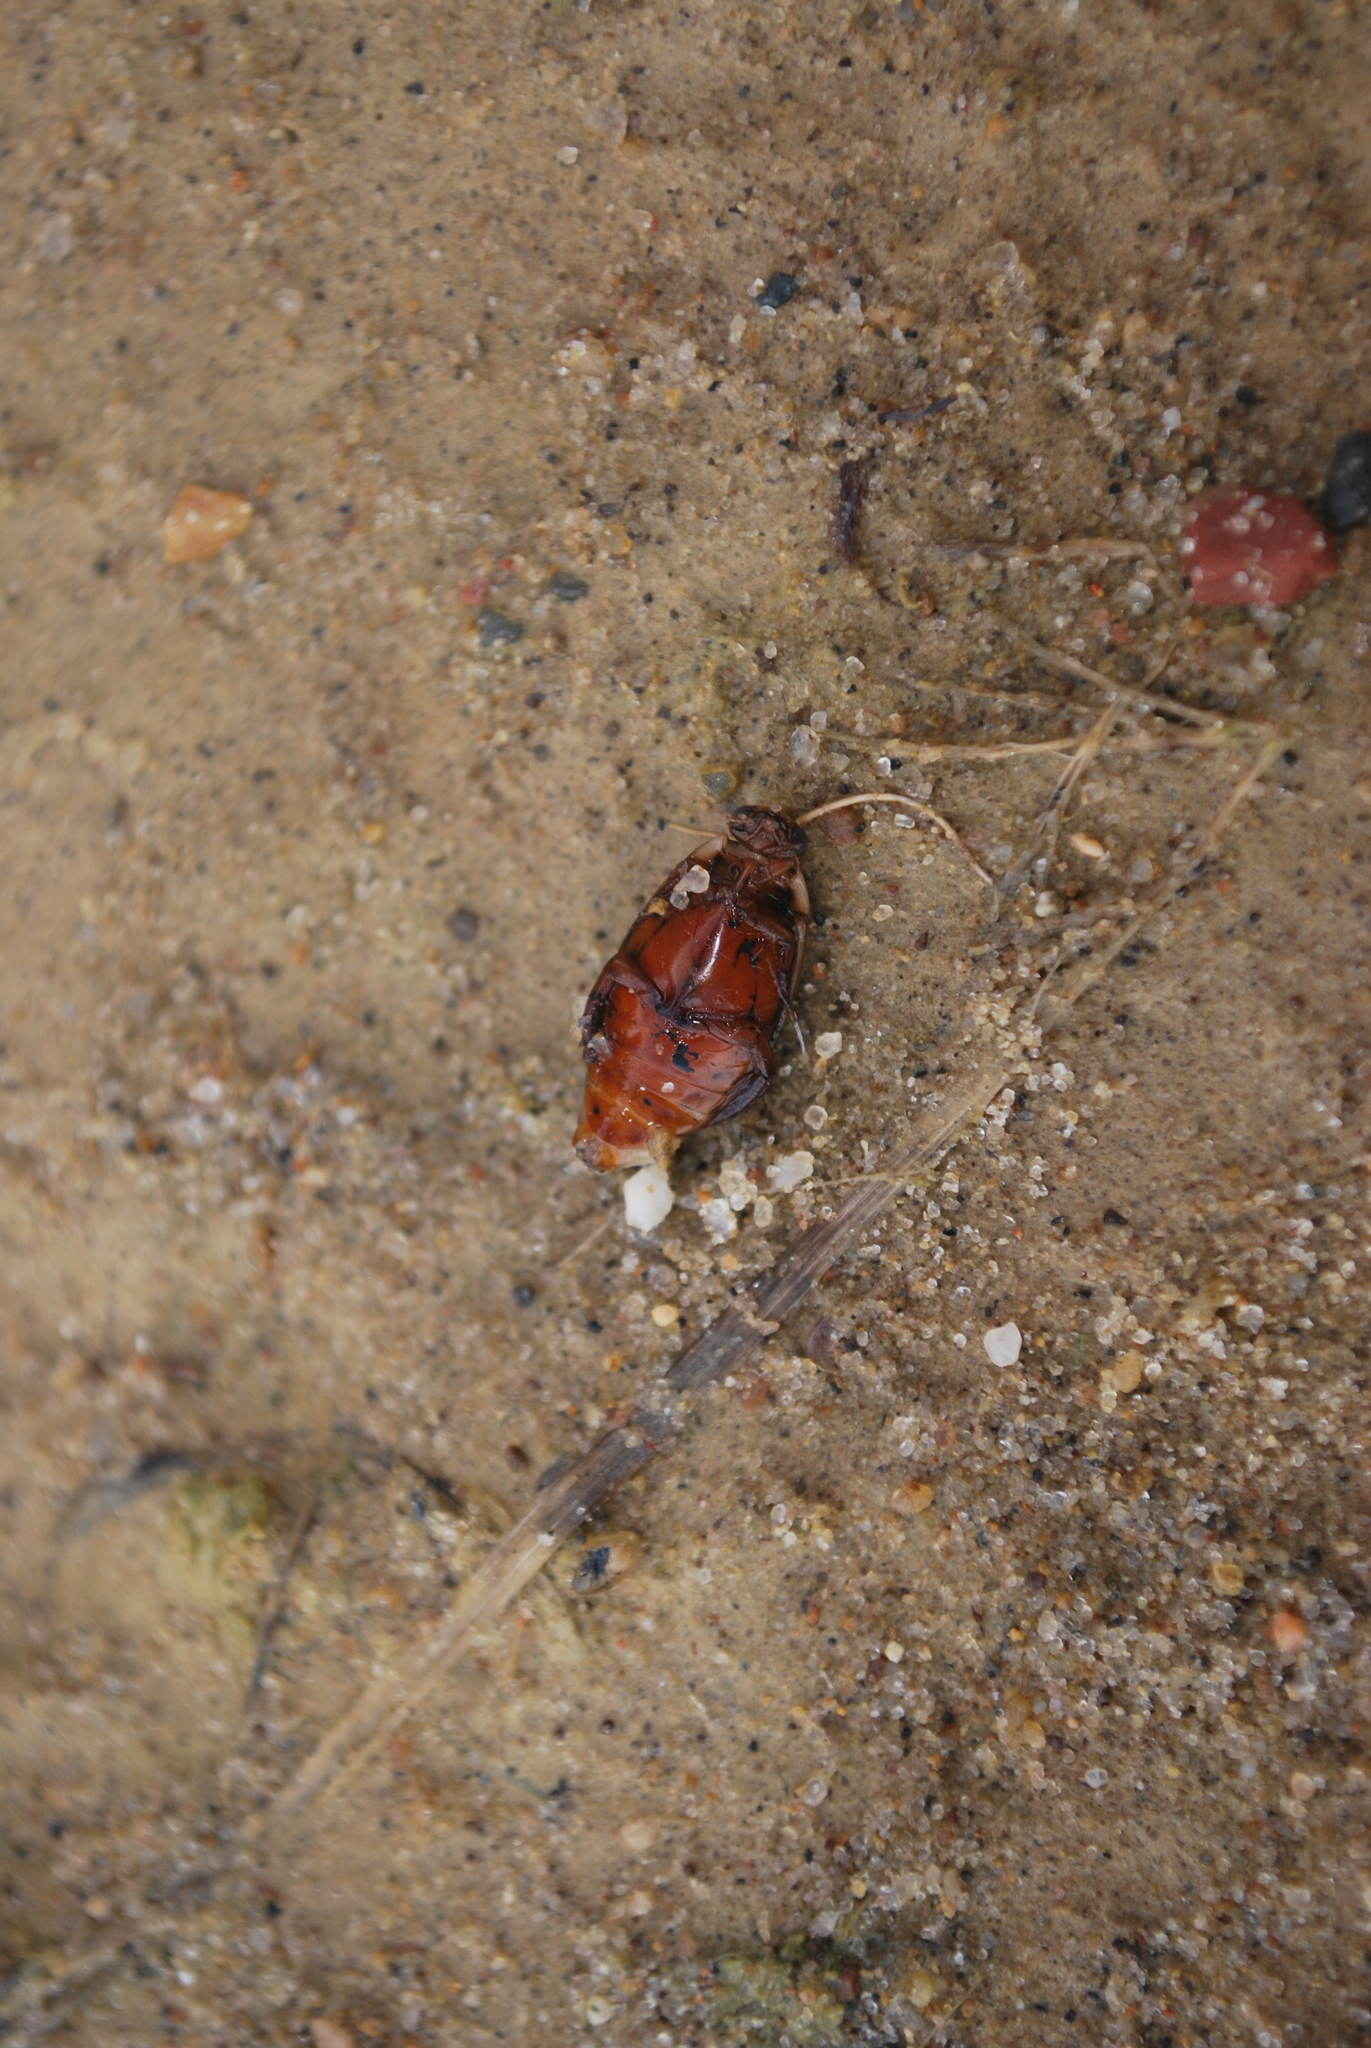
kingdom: Animalia
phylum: Arthropoda
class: Insecta
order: Coleoptera
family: Dytiscidae
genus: Thermonectus
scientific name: Thermonectus nigrofasciatus
